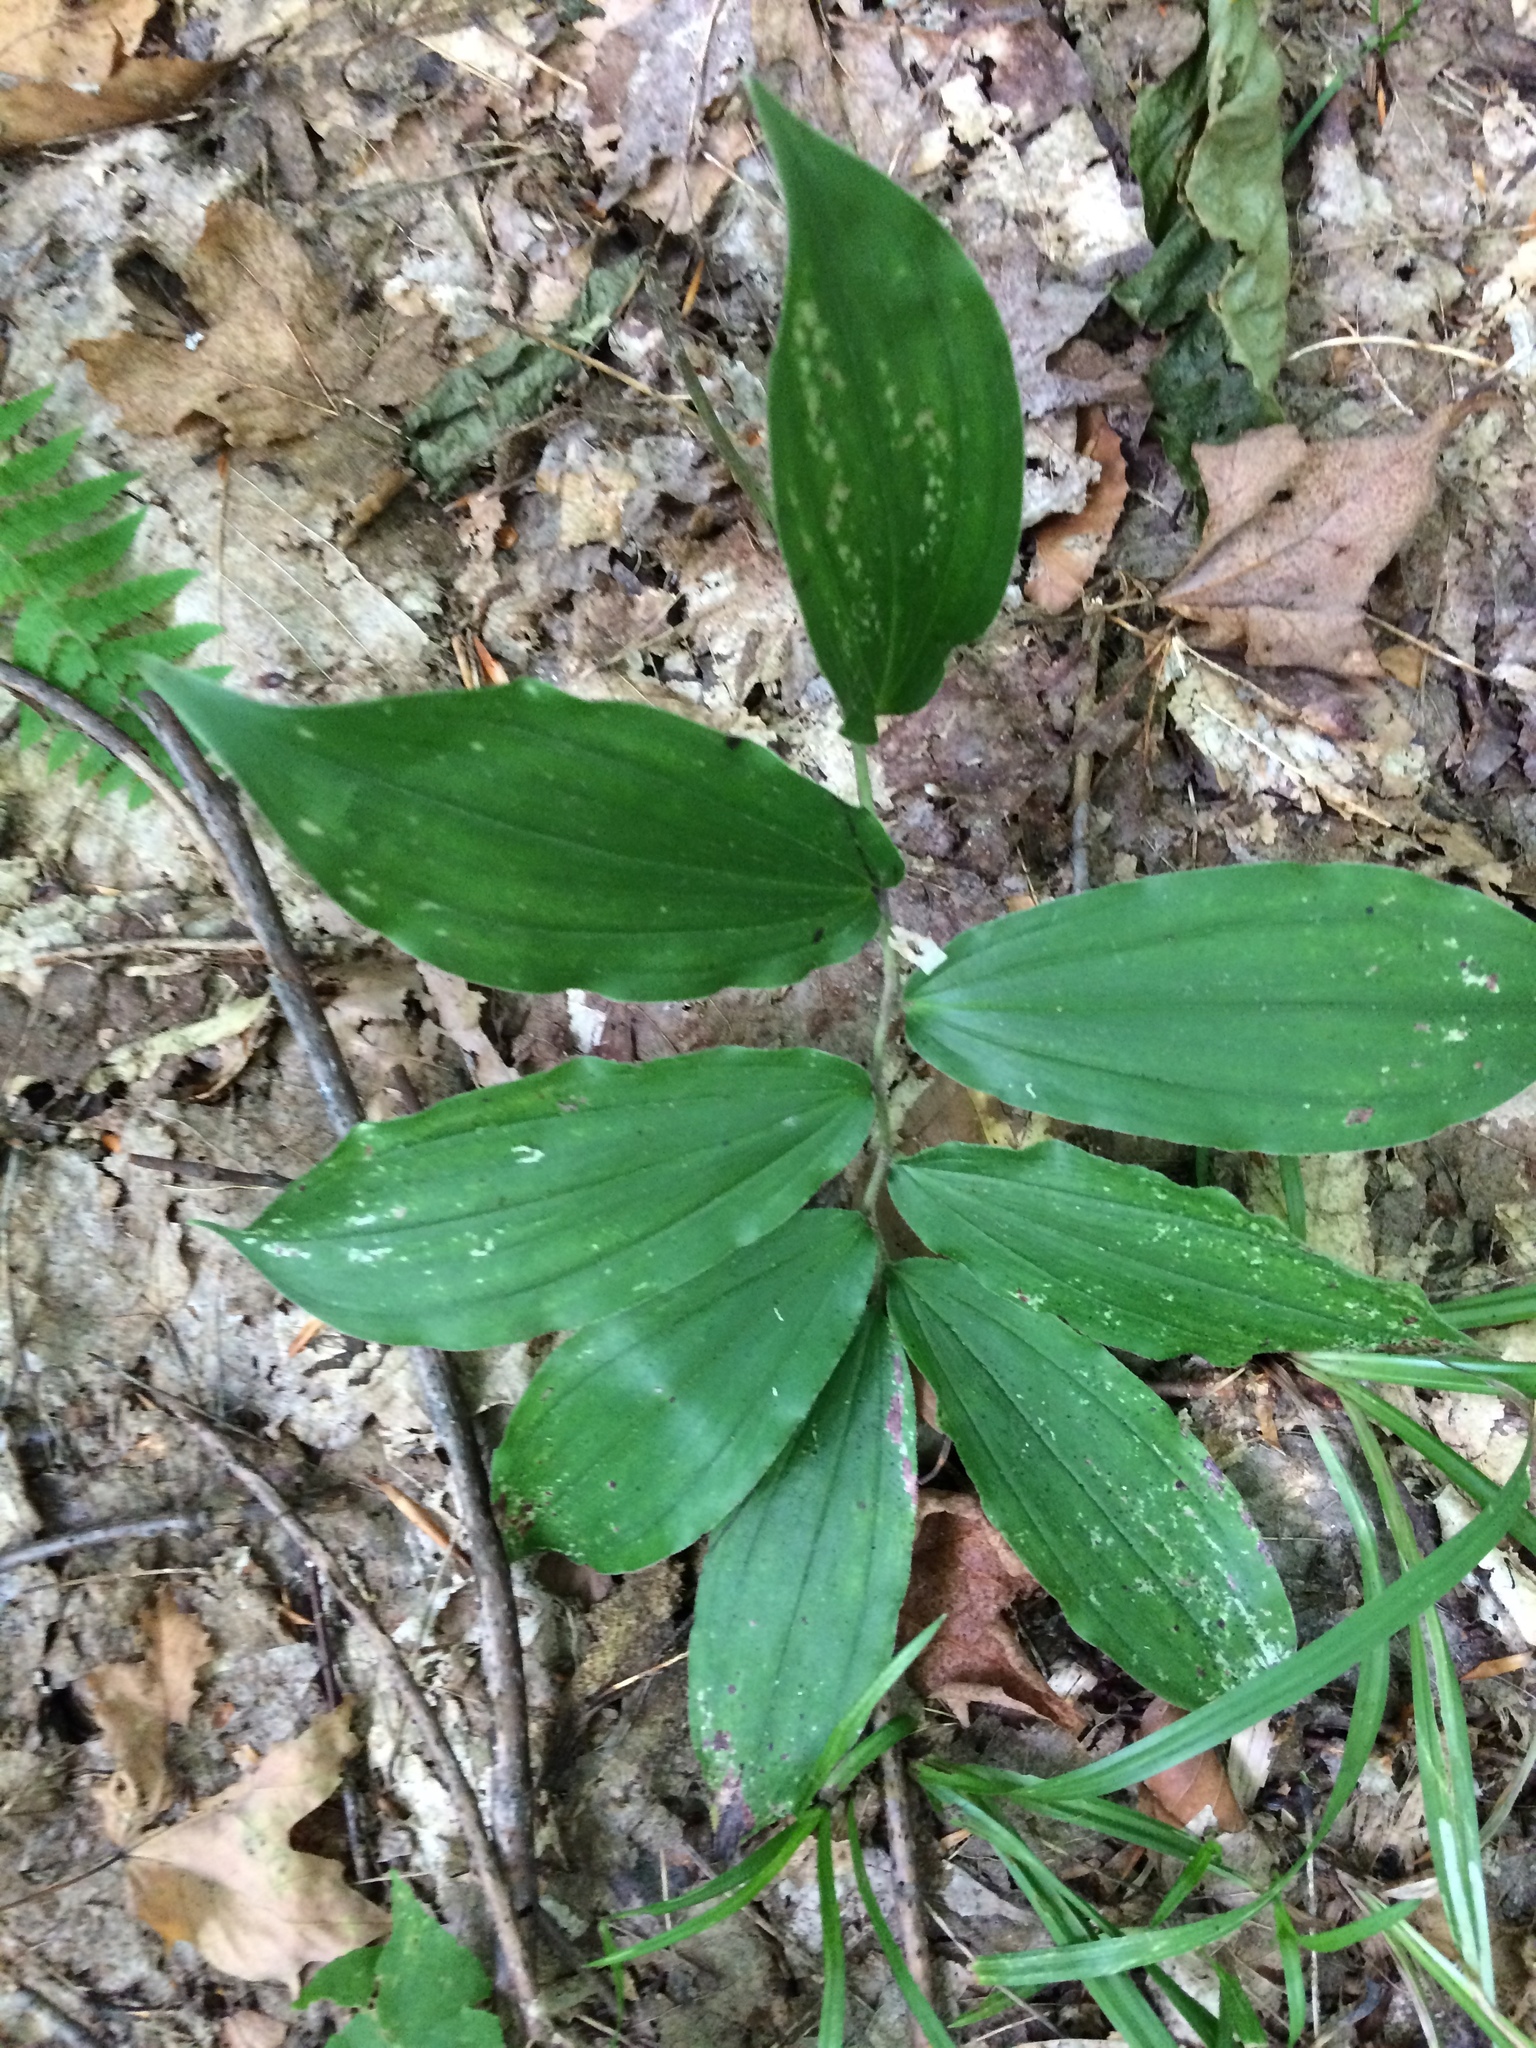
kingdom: Plantae
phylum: Tracheophyta
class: Liliopsida
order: Asparagales
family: Asparagaceae
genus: Maianthemum
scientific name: Maianthemum racemosum
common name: False spikenard
